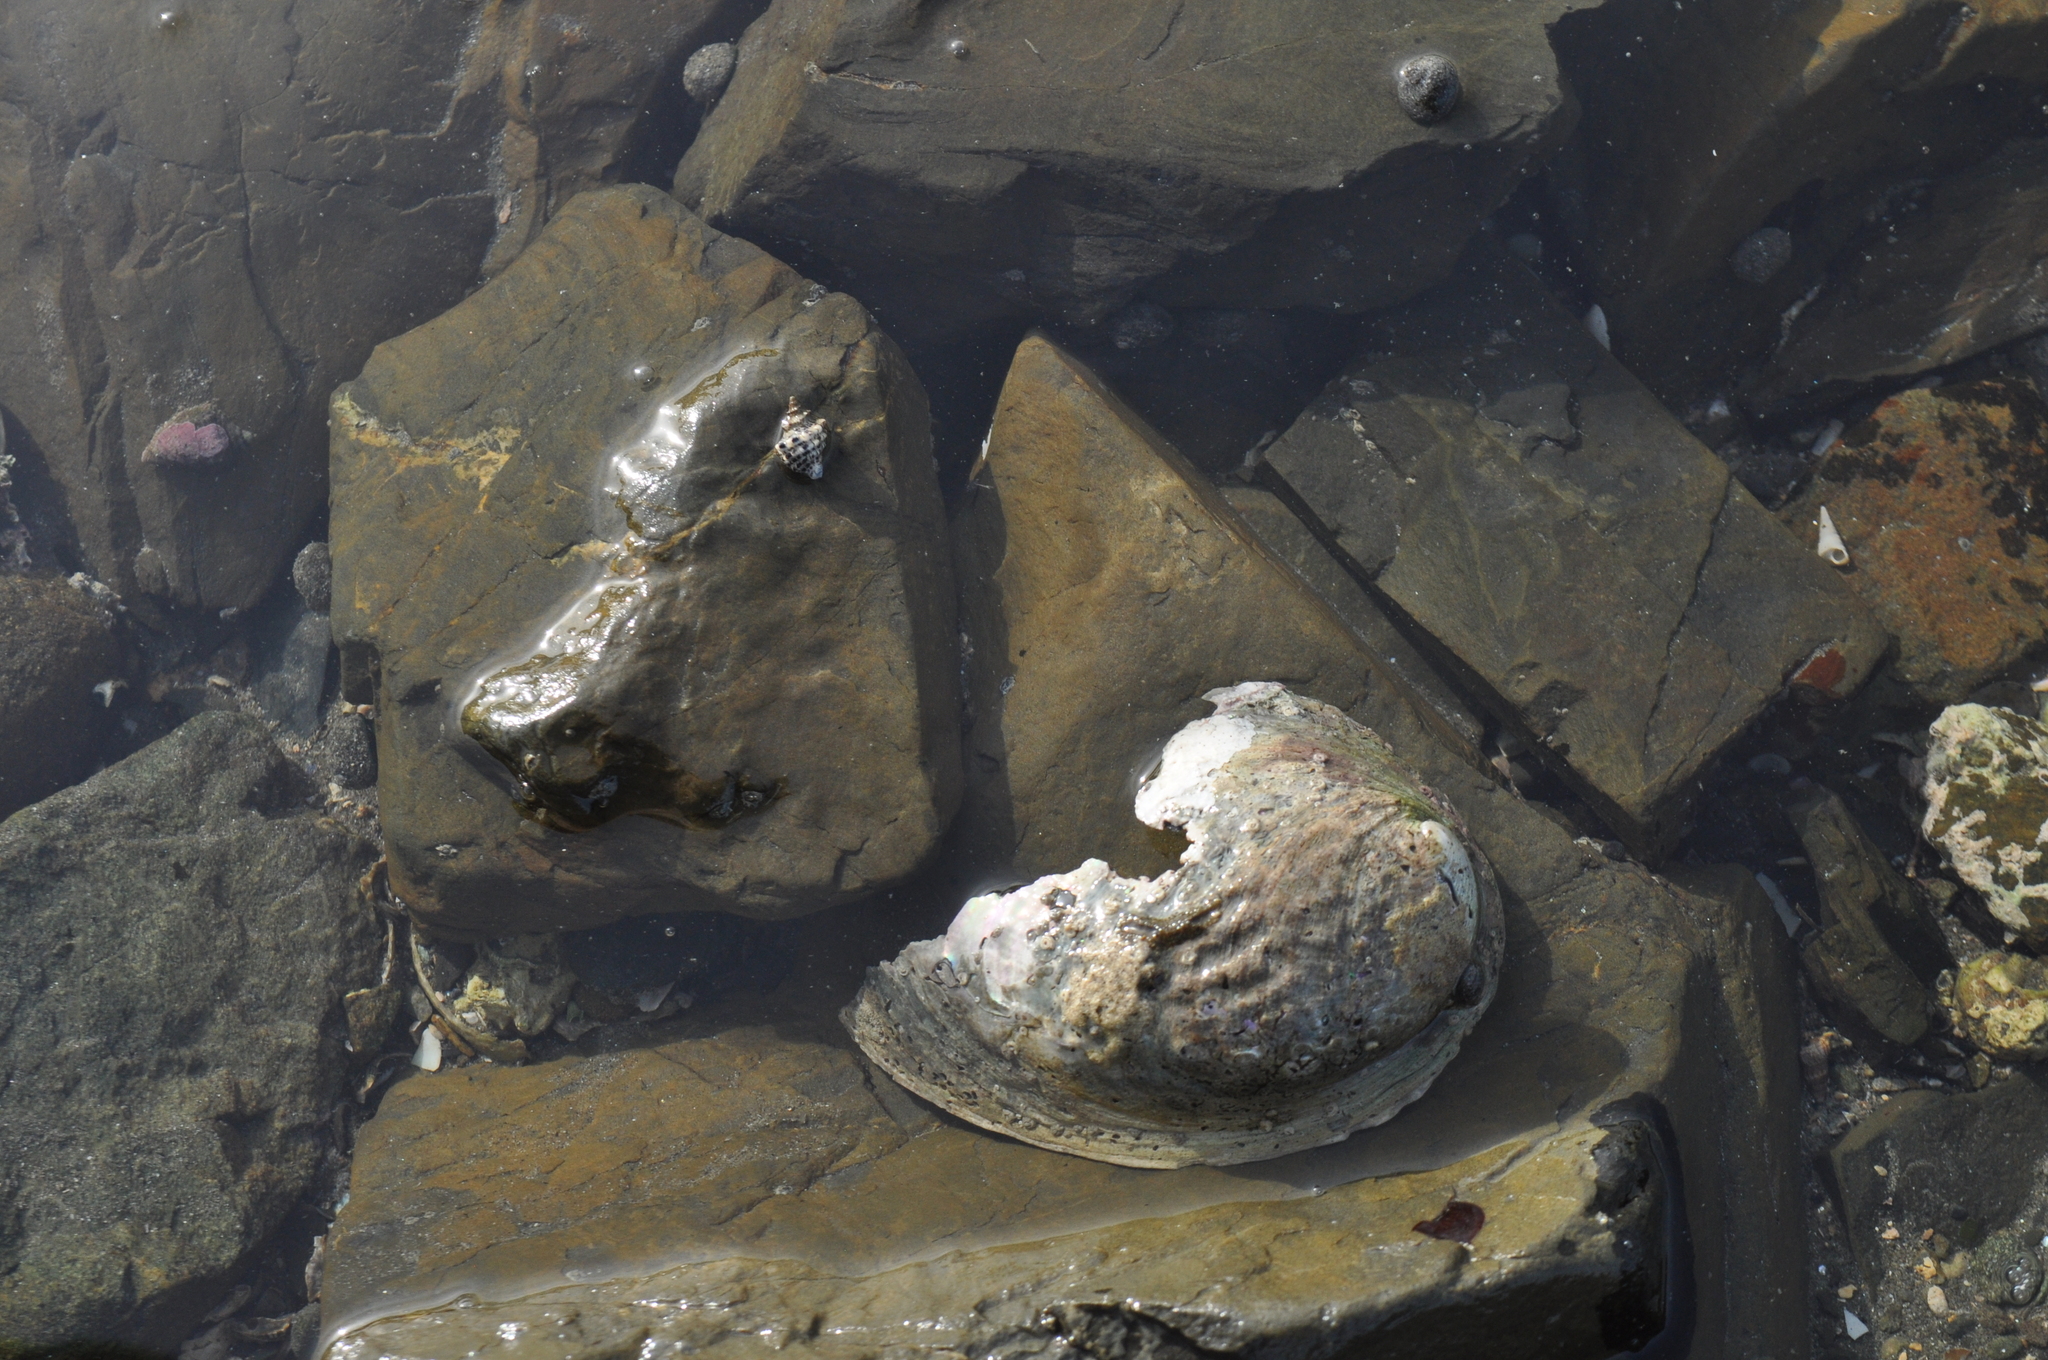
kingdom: Animalia
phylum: Mollusca
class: Gastropoda
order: Lepetellida
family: Haliotidae
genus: Haliotis
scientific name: Haliotis iris
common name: Abalone
